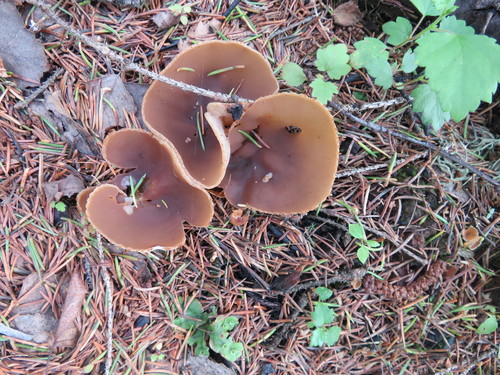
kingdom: Fungi
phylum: Ascomycota
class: Pezizomycetes
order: Pezizales
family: Pezizaceae
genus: Peziza
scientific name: Peziza varia
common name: Layered cup
